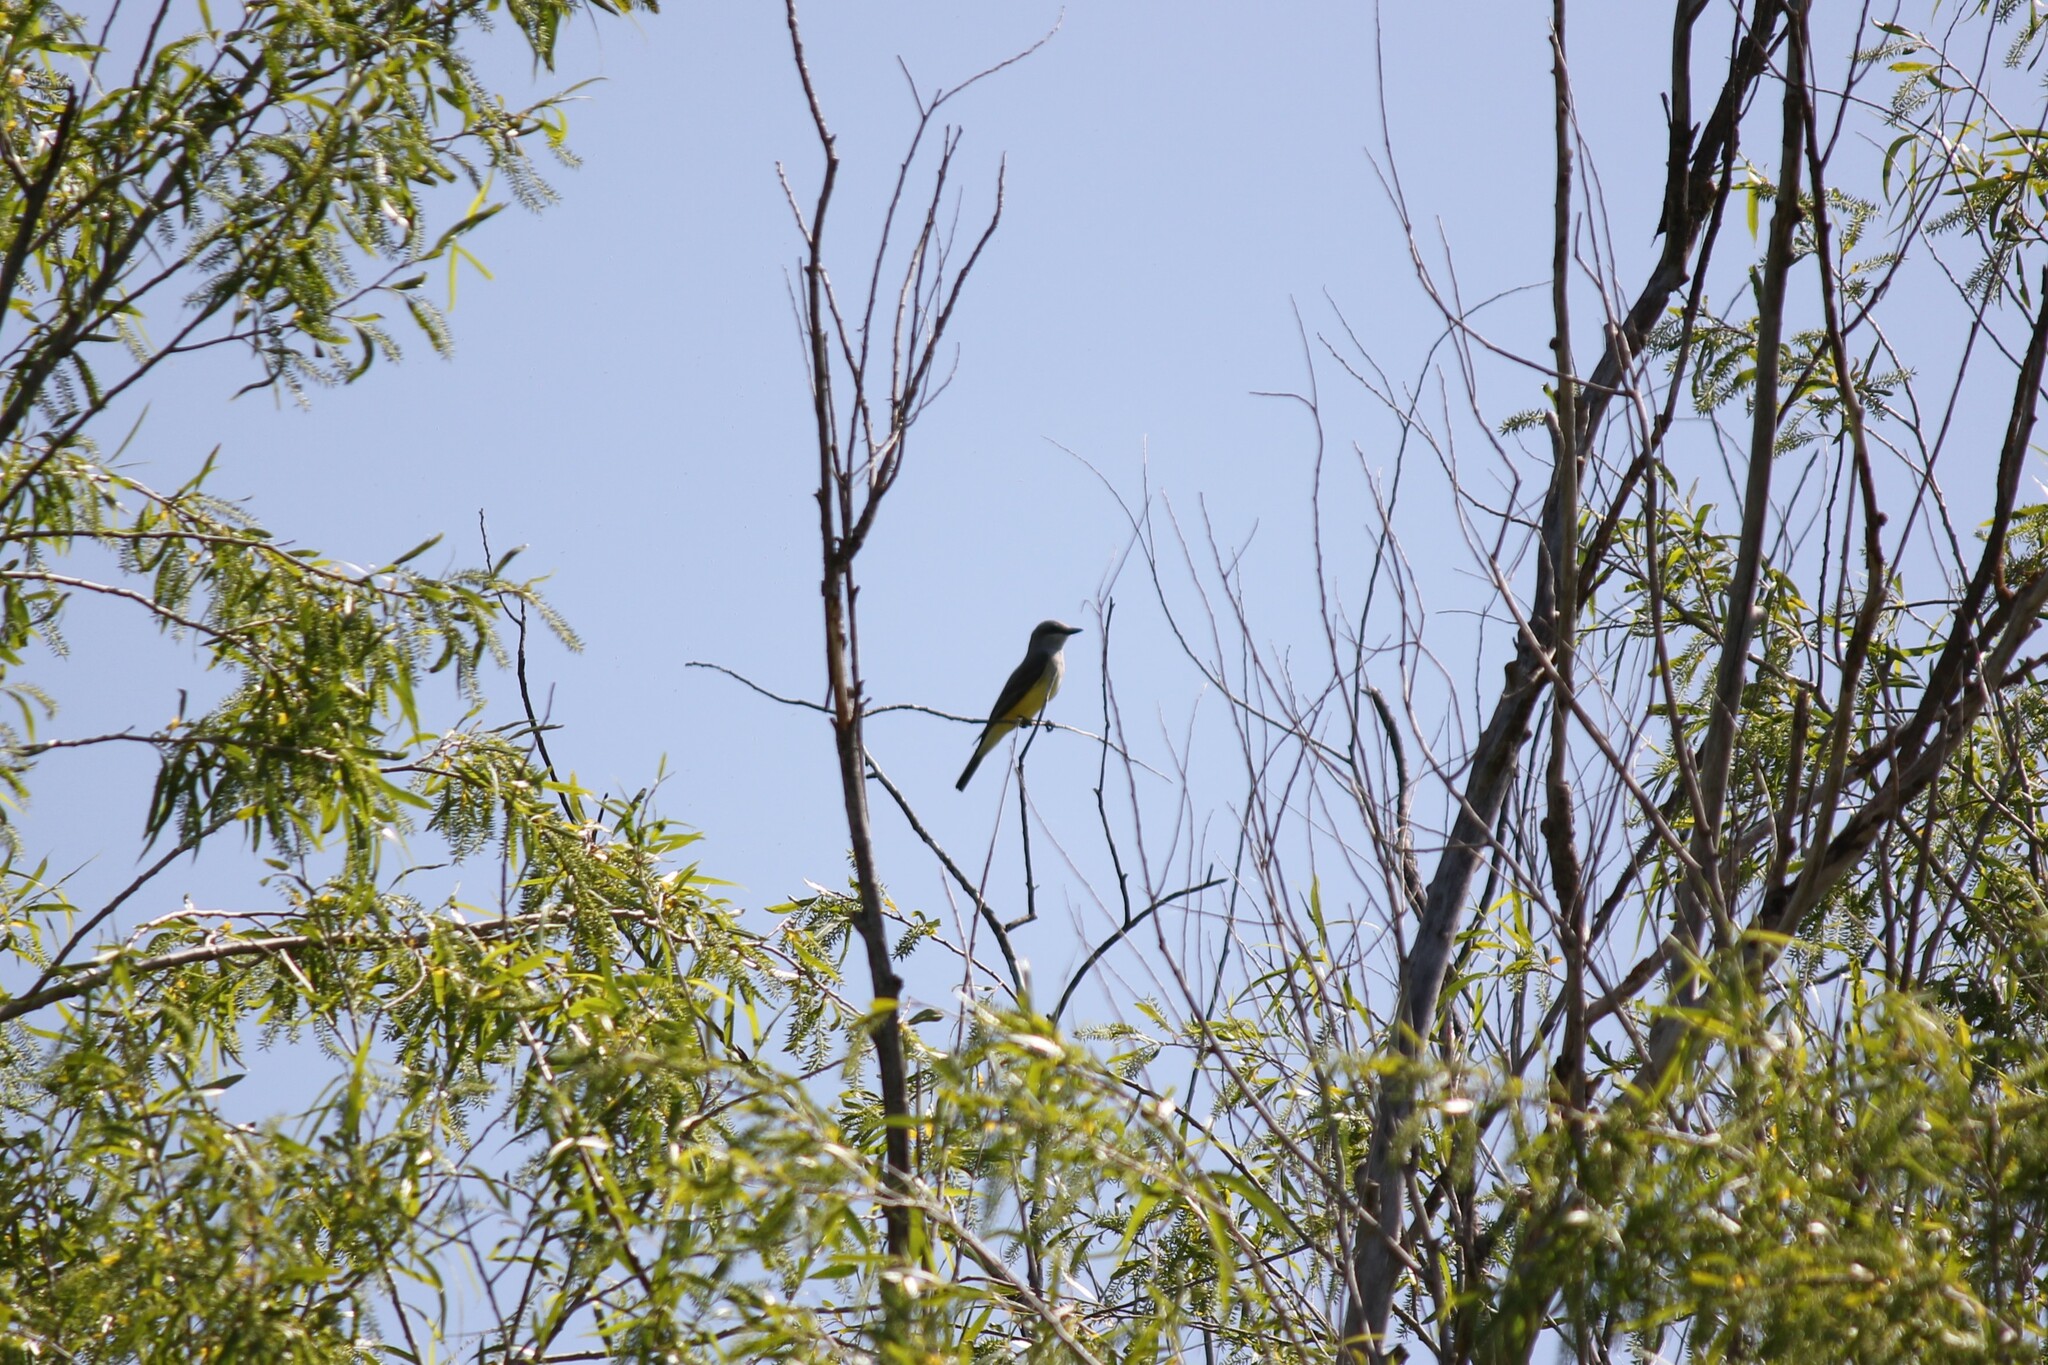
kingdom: Animalia
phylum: Chordata
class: Aves
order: Passeriformes
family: Tyrannidae
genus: Tyrannus
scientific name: Tyrannus verticalis
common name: Western kingbird
